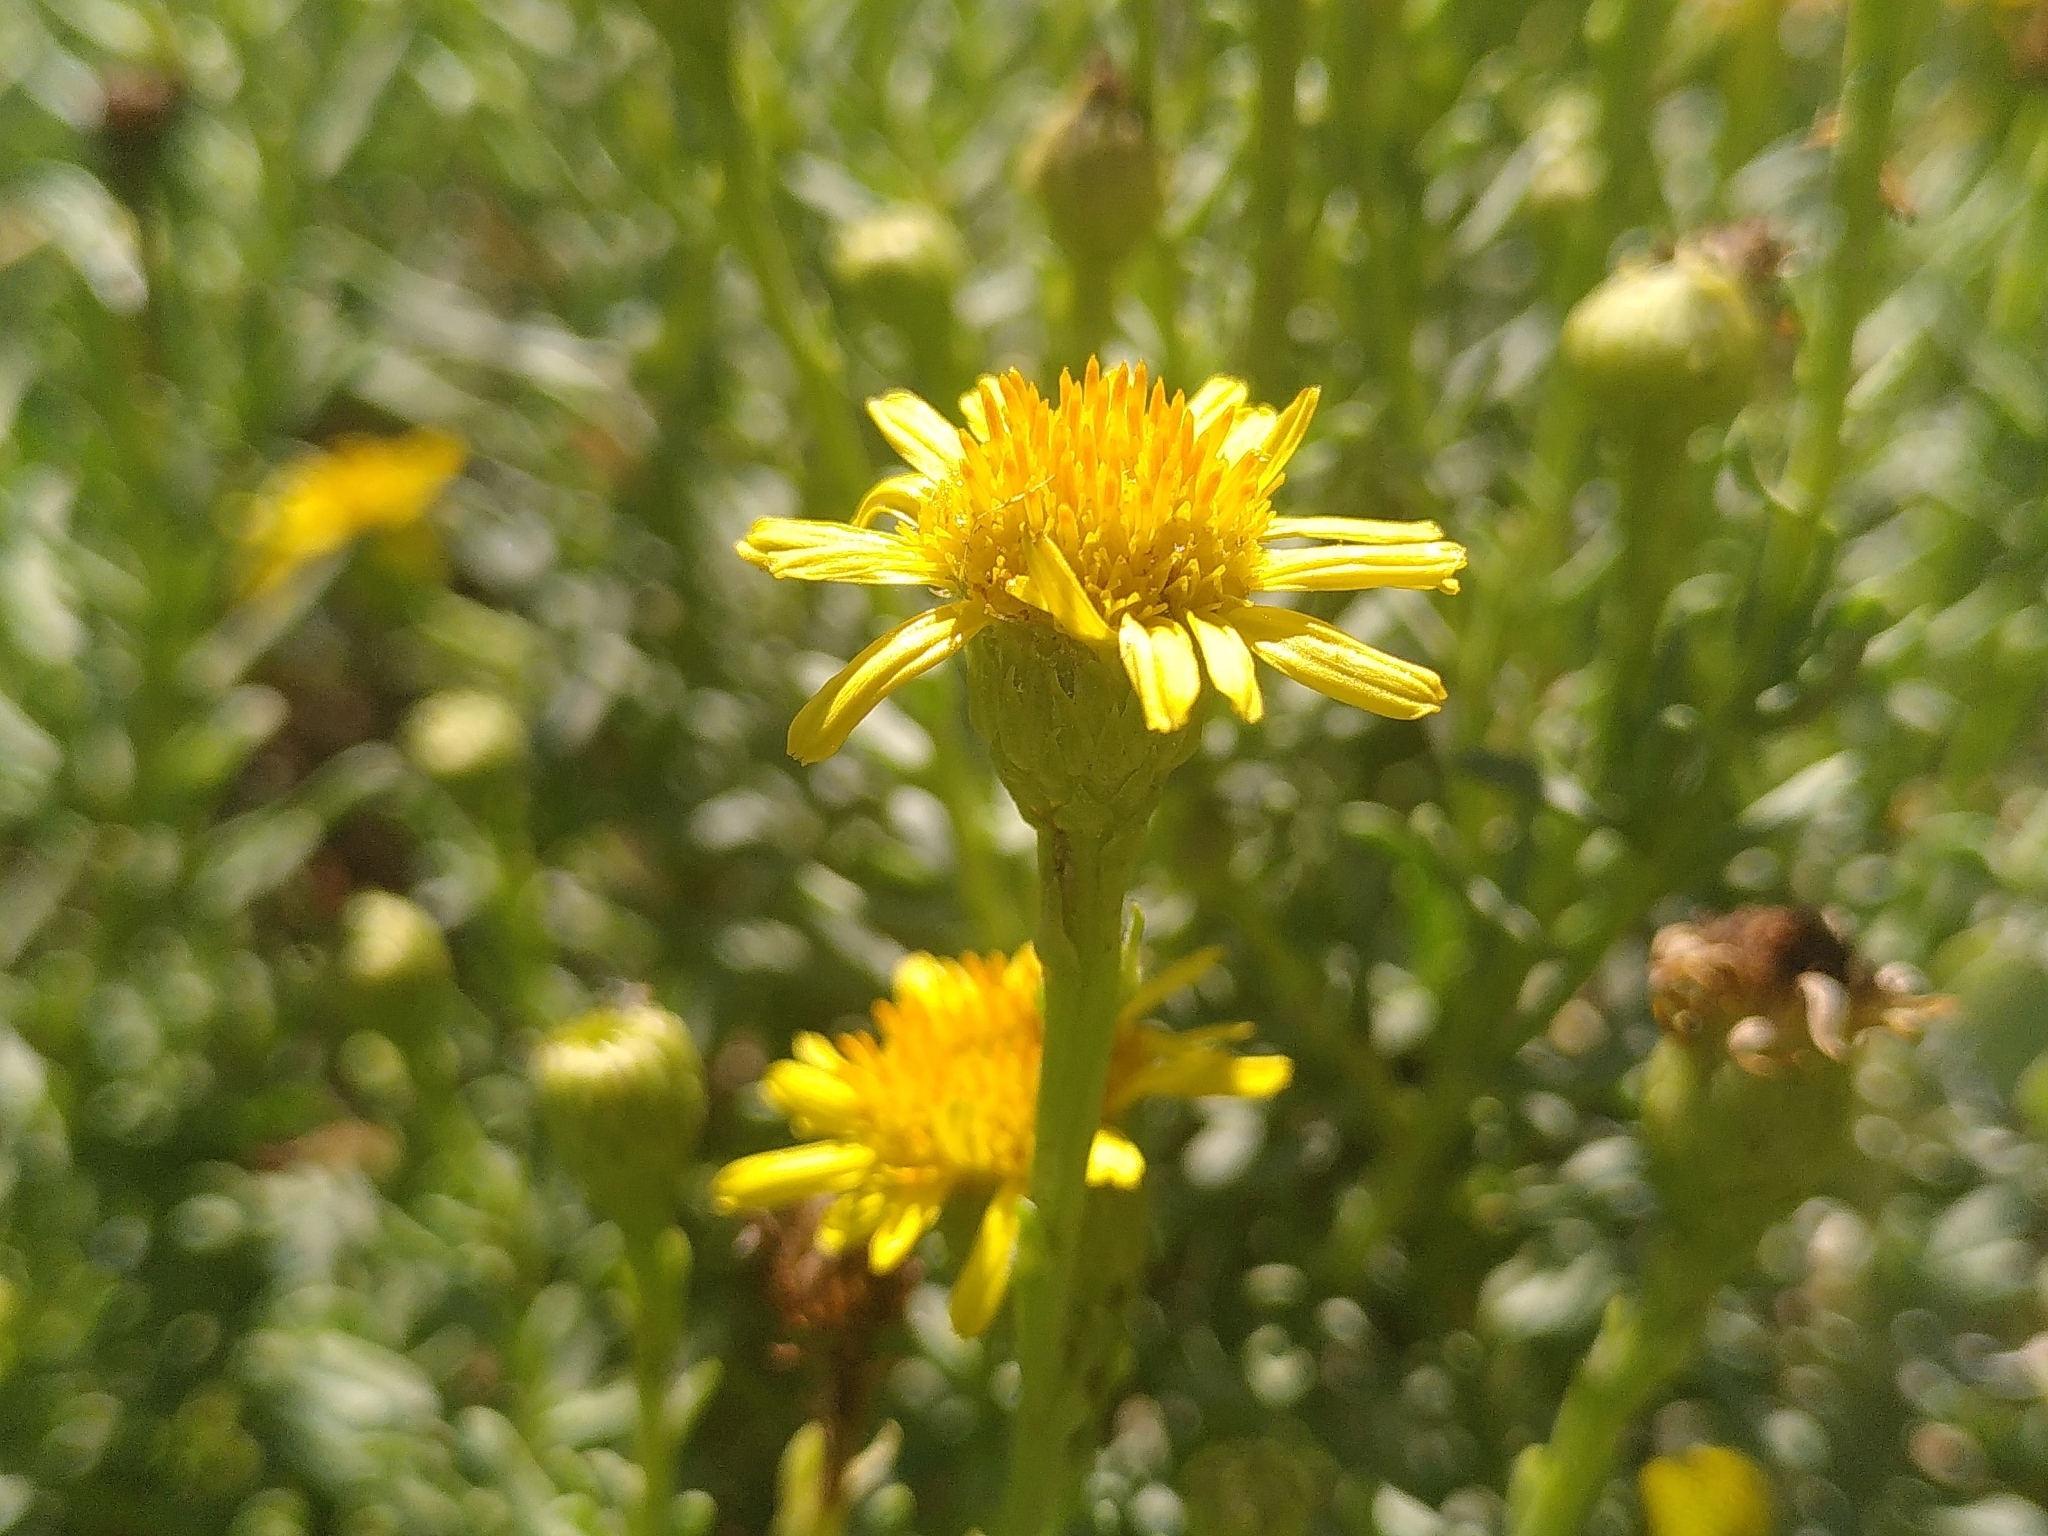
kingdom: Plantae
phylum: Tracheophyta
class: Magnoliopsida
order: Asterales
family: Asteraceae
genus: Limbarda
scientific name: Limbarda crithmoides
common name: Golden samphire
